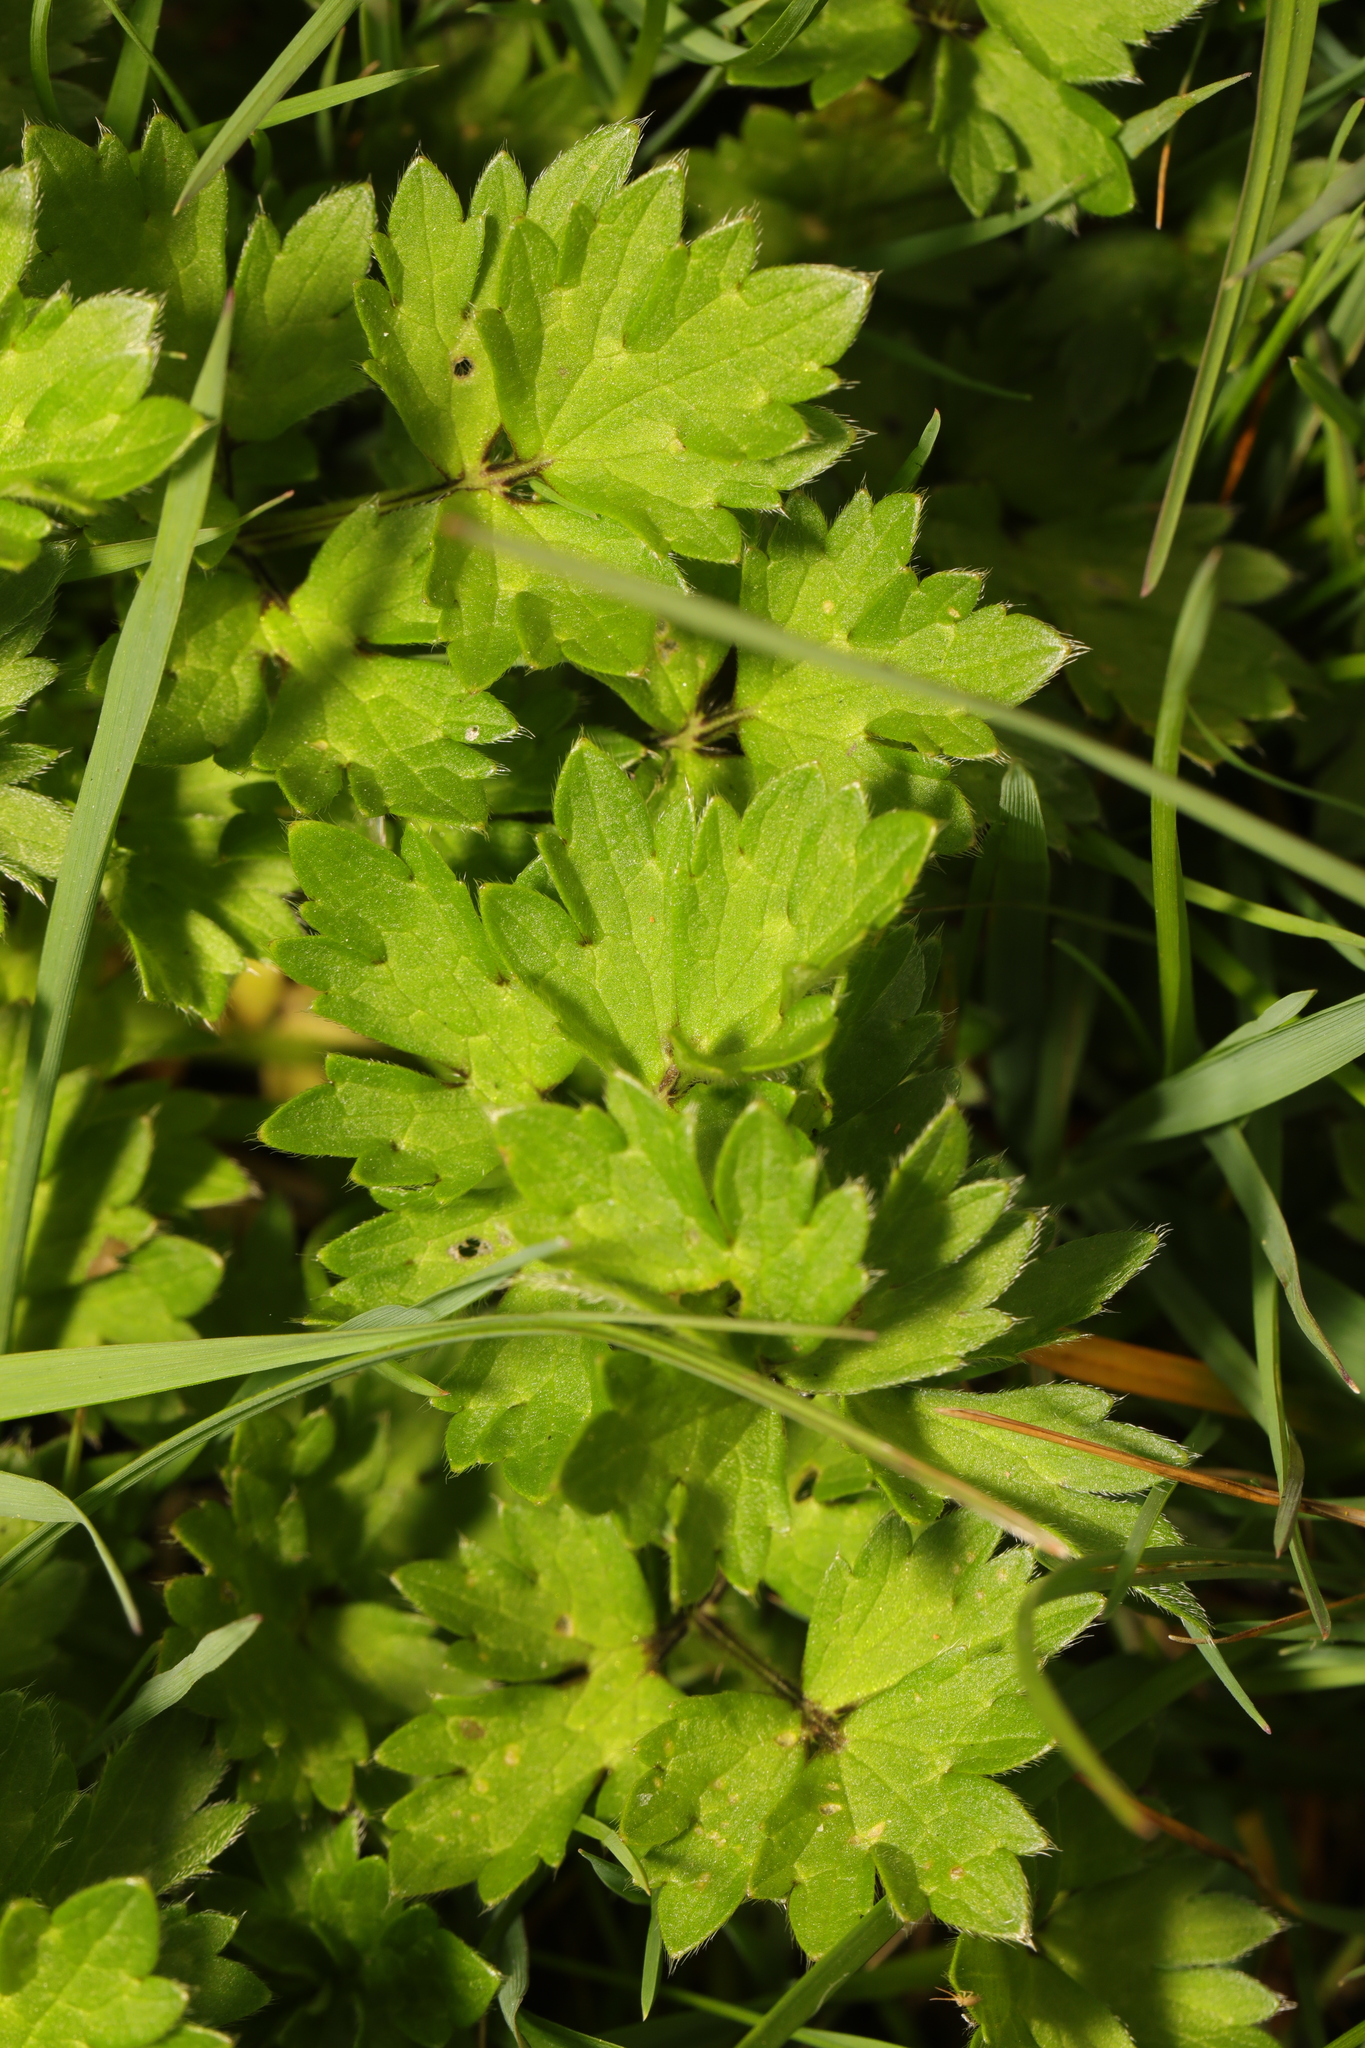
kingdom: Plantae
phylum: Tracheophyta
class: Magnoliopsida
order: Ranunculales
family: Ranunculaceae
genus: Ranunculus
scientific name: Ranunculus repens
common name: Creeping buttercup
